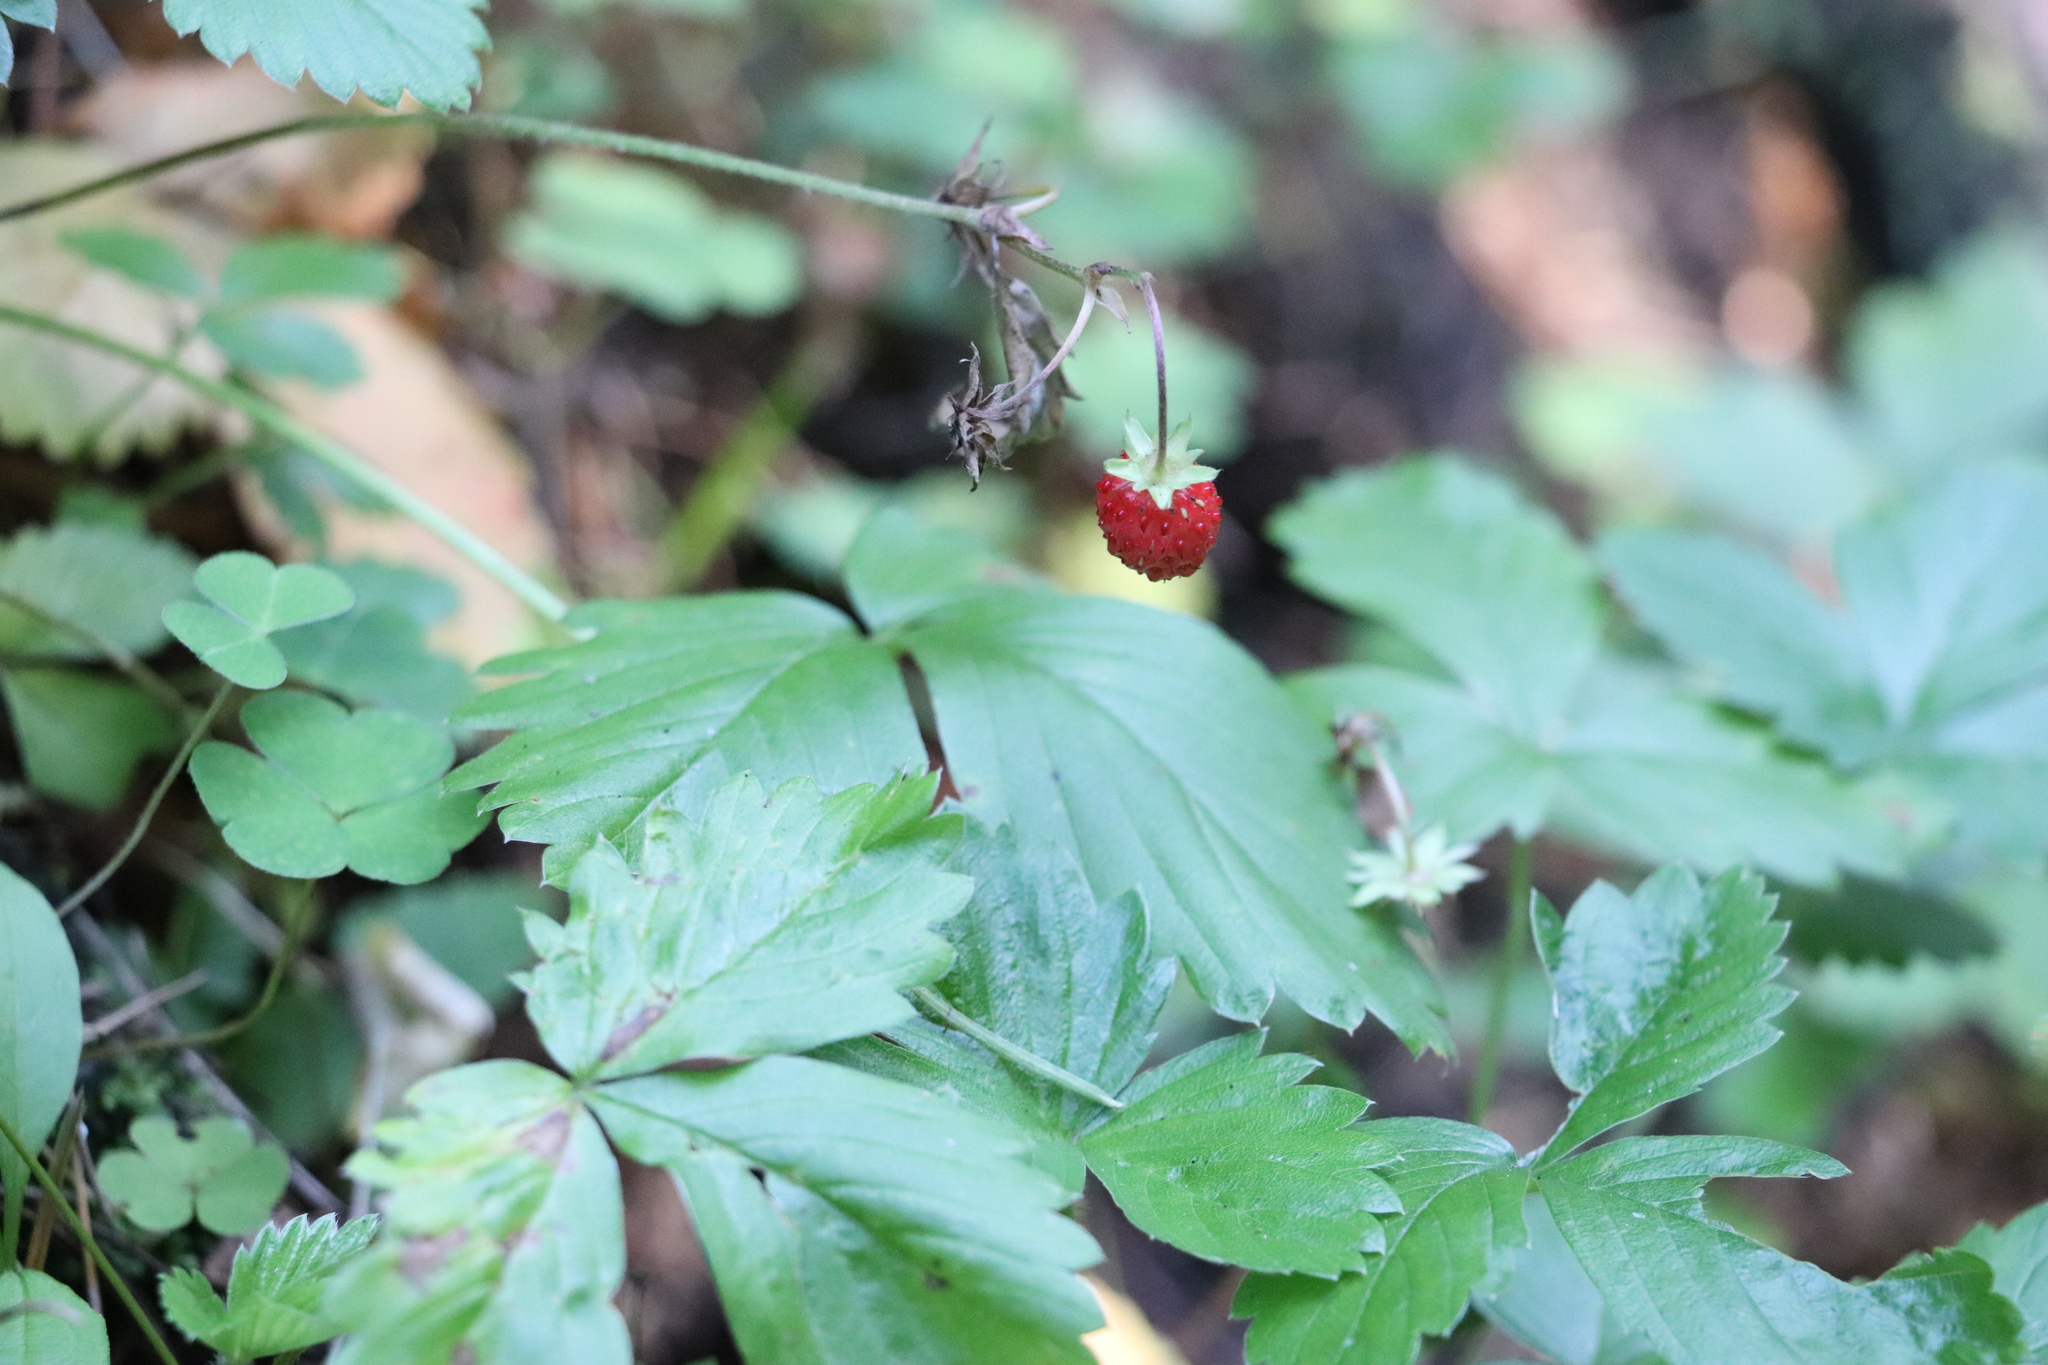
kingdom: Plantae
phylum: Tracheophyta
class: Magnoliopsida
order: Rosales
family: Rosaceae
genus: Fragaria
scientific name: Fragaria vesca
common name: Wild strawberry
